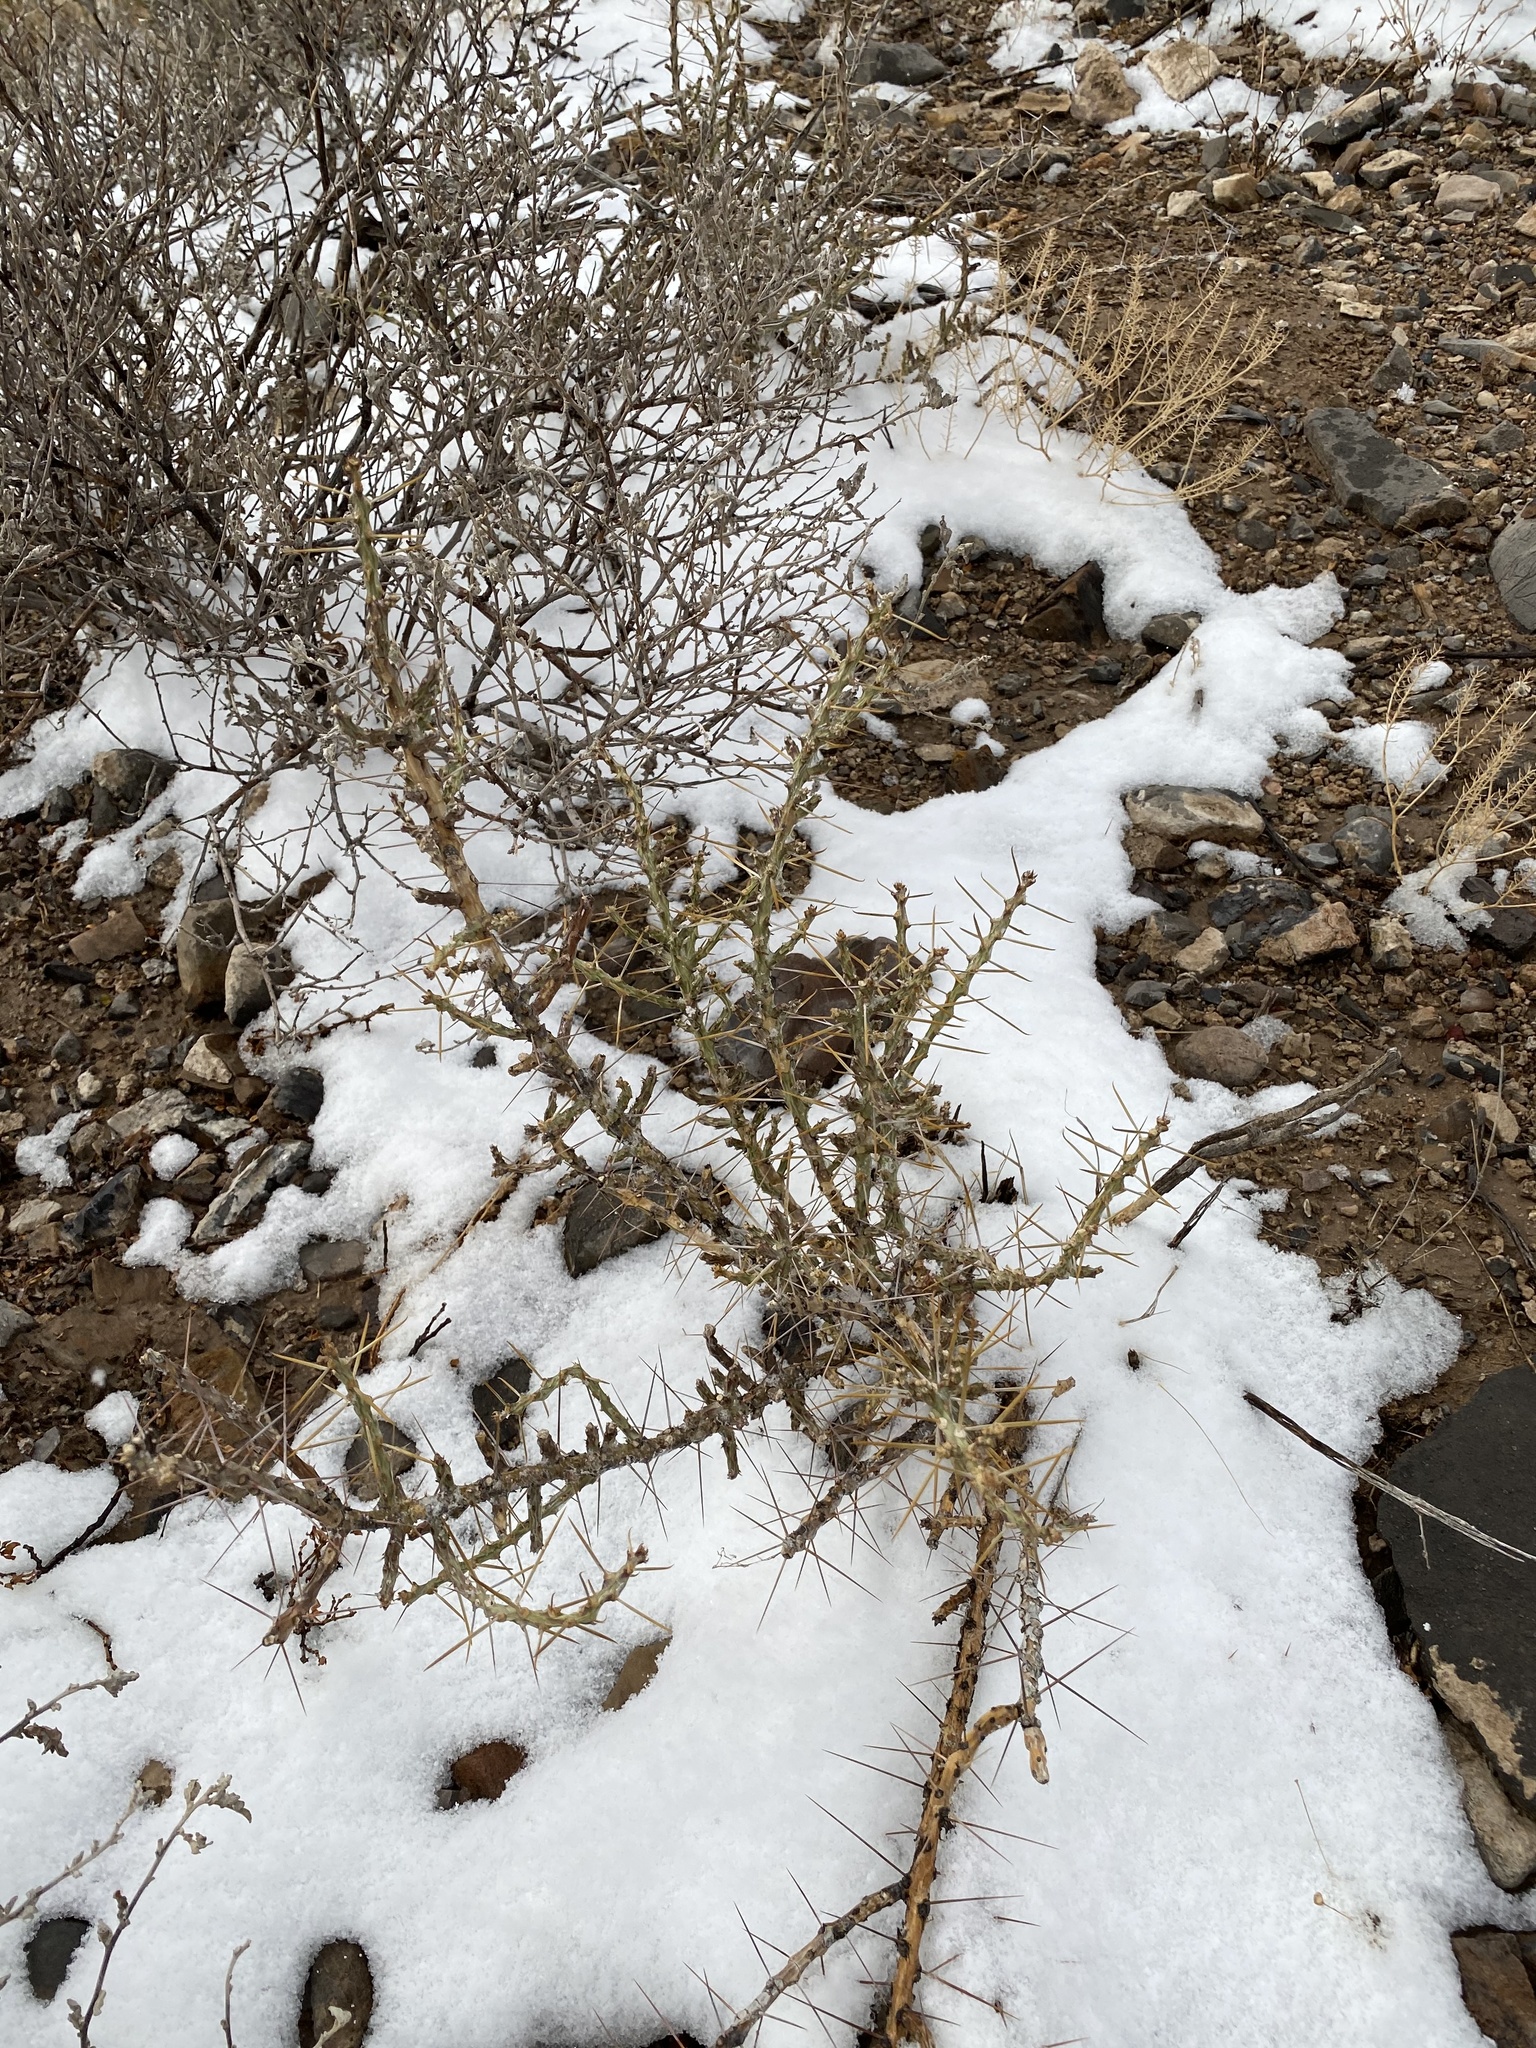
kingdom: Plantae
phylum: Tracheophyta
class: Magnoliopsida
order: Caryophyllales
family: Cactaceae
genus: Cylindropuntia
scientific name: Cylindropuntia leptocaulis
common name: Christmas cactus
